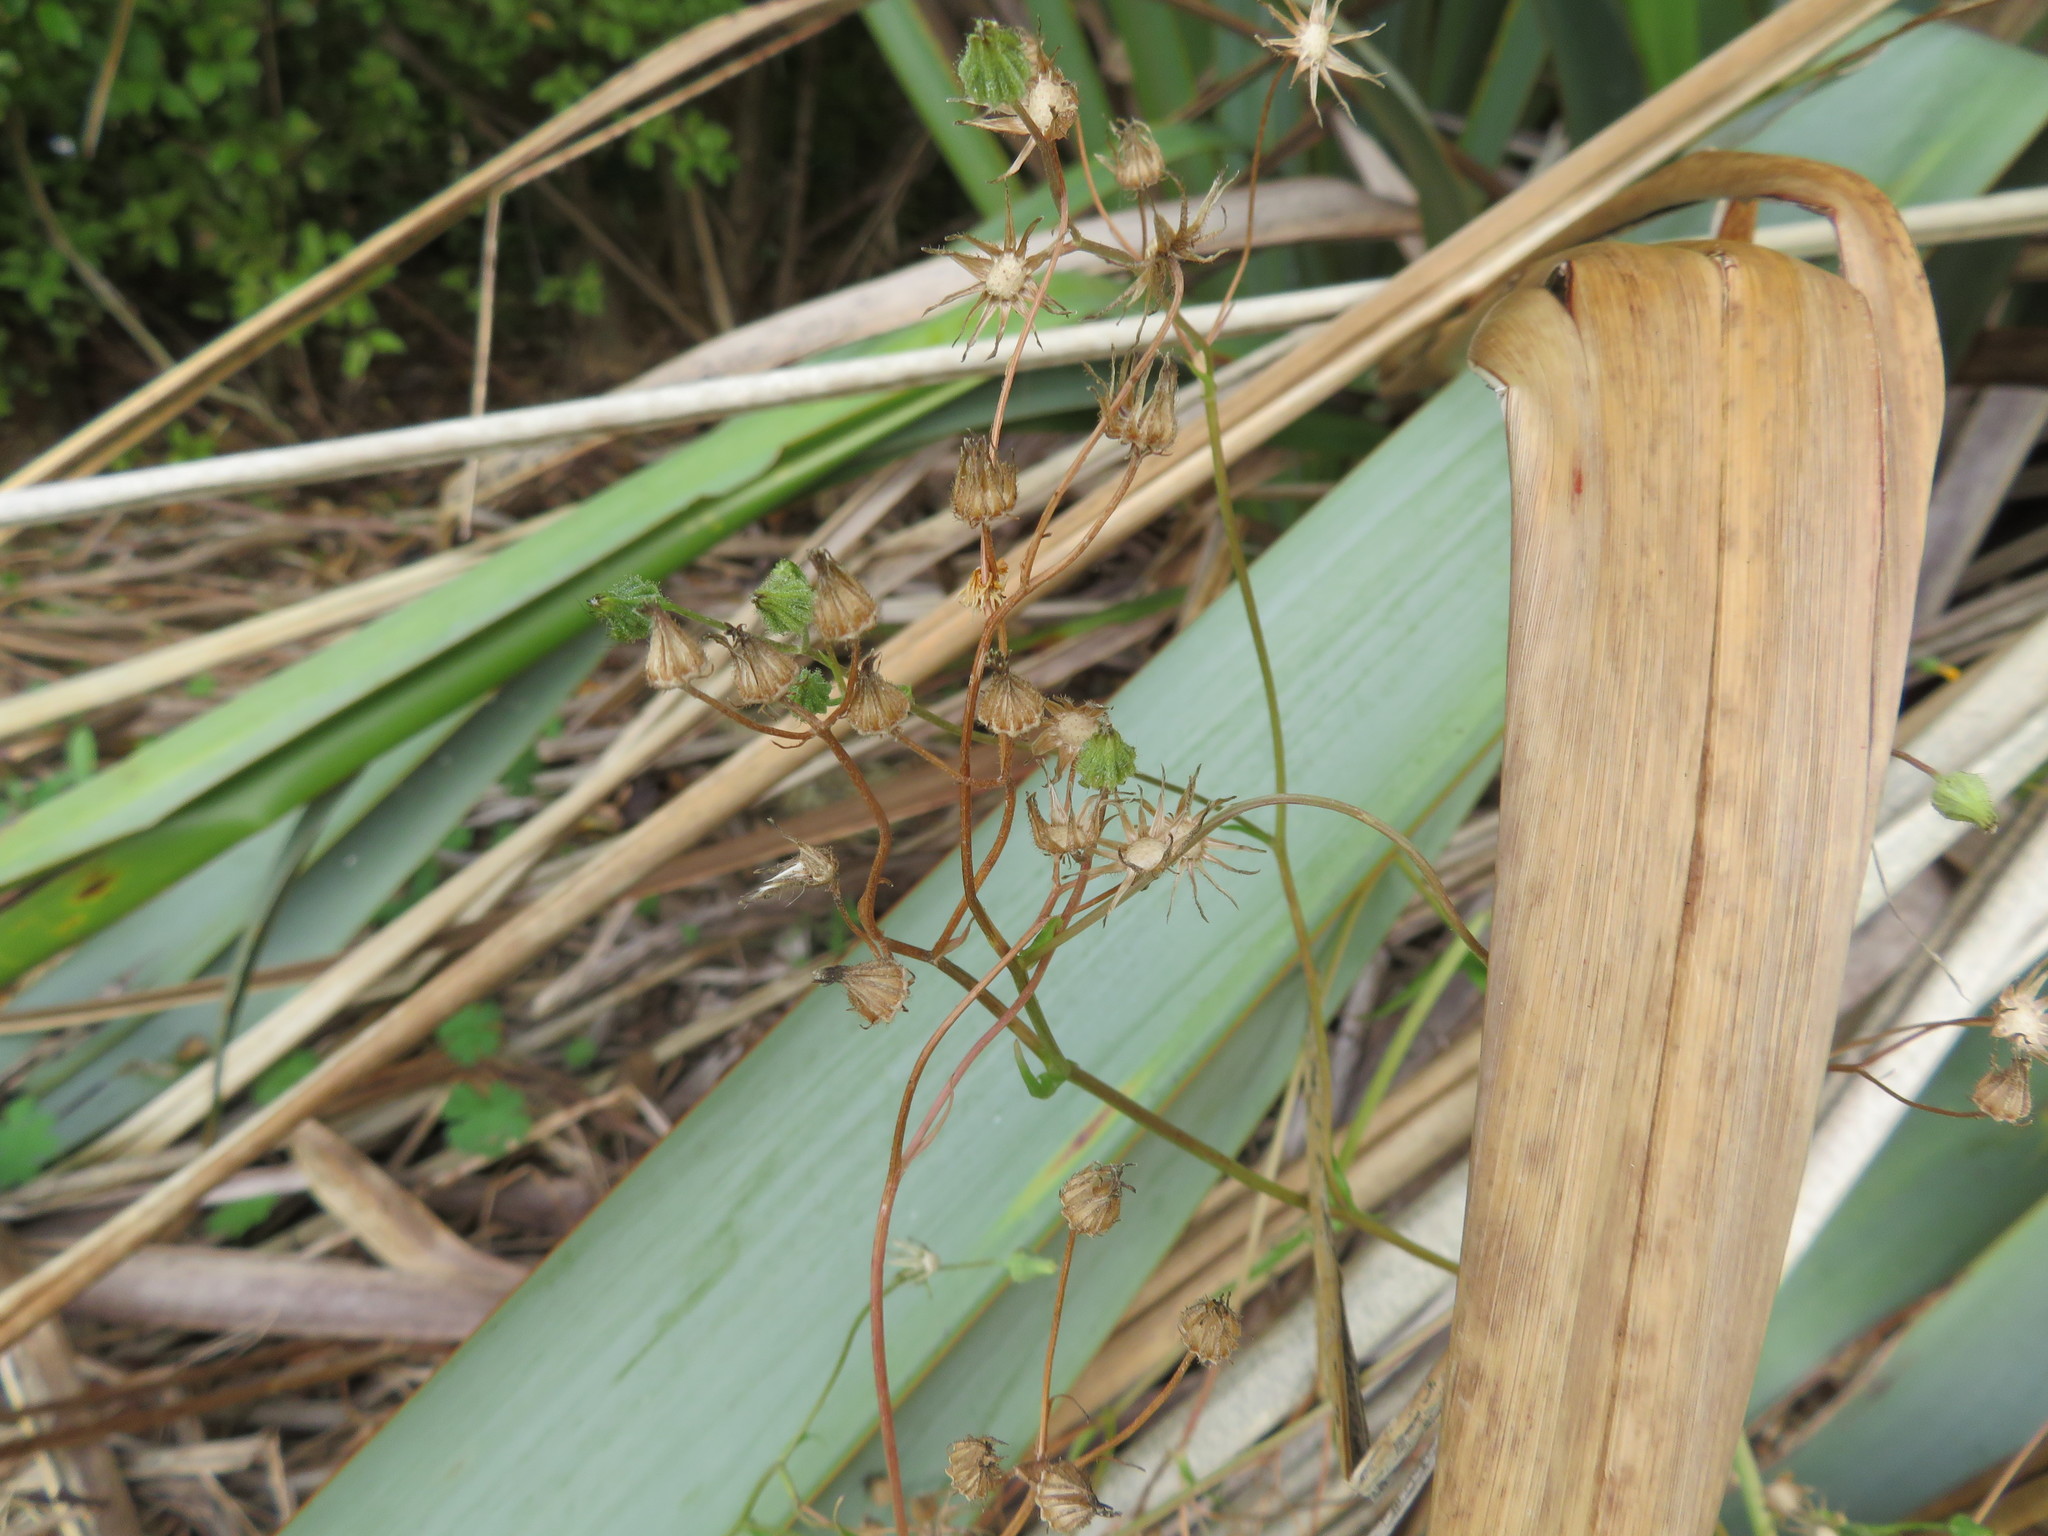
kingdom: Plantae
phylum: Tracheophyta
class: Magnoliopsida
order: Asterales
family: Asteraceae
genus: Crepis
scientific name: Crepis capillaris
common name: Smooth hawksbeard
